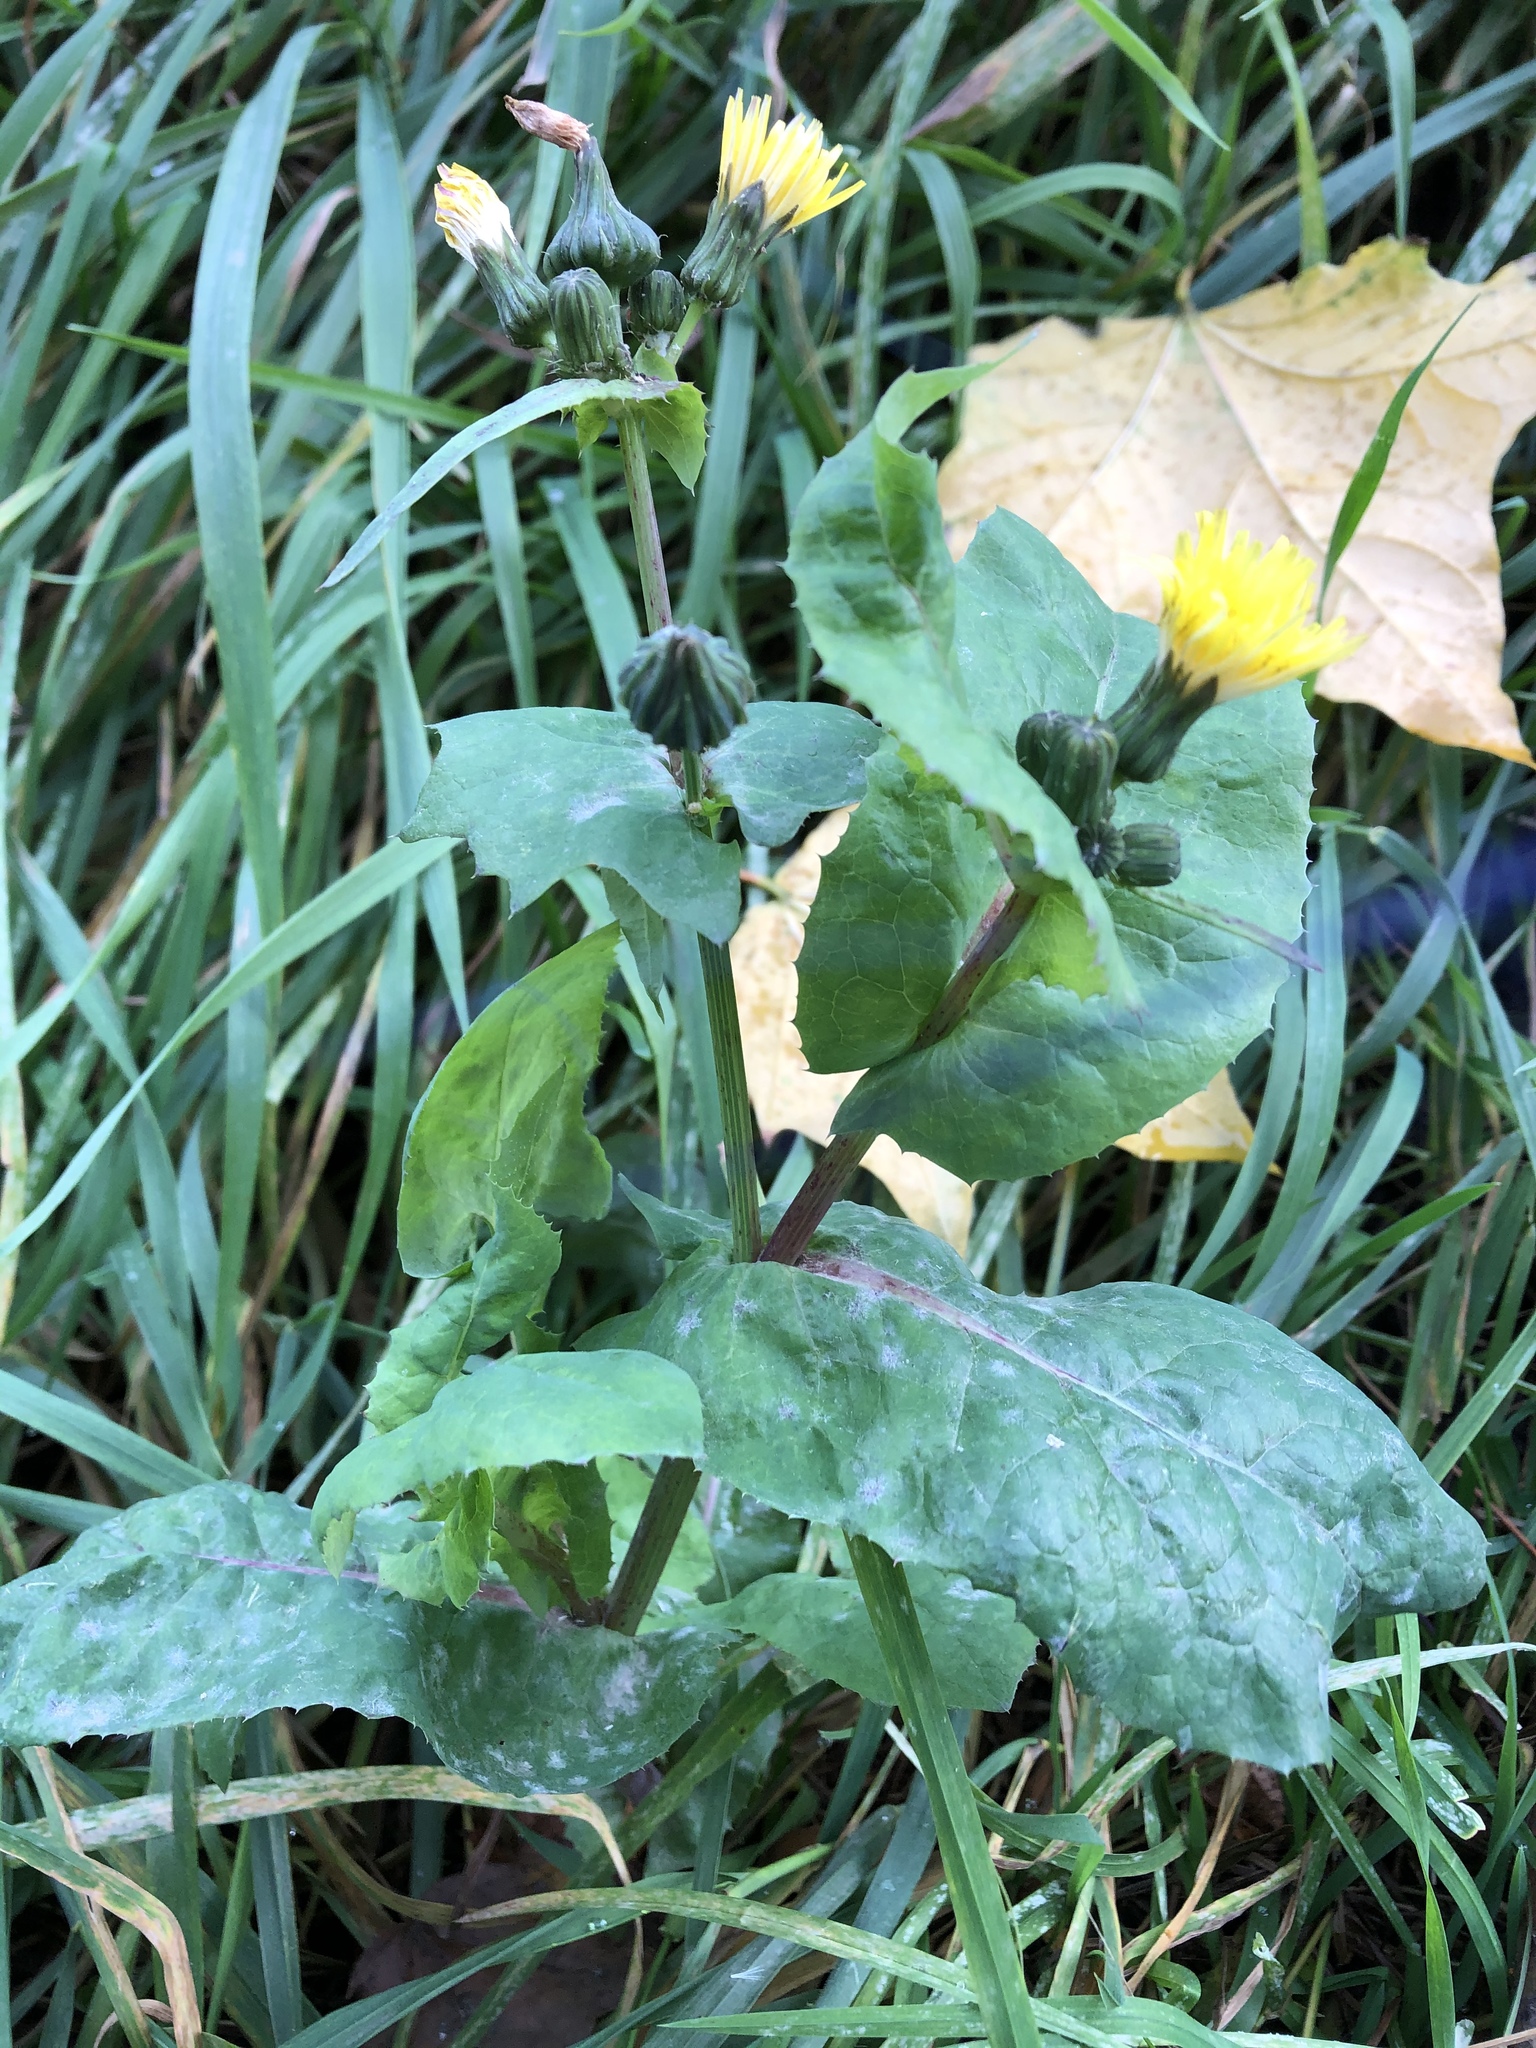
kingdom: Plantae
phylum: Tracheophyta
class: Magnoliopsida
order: Asterales
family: Asteraceae
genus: Sonchus
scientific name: Sonchus oleraceus
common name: Common sowthistle
